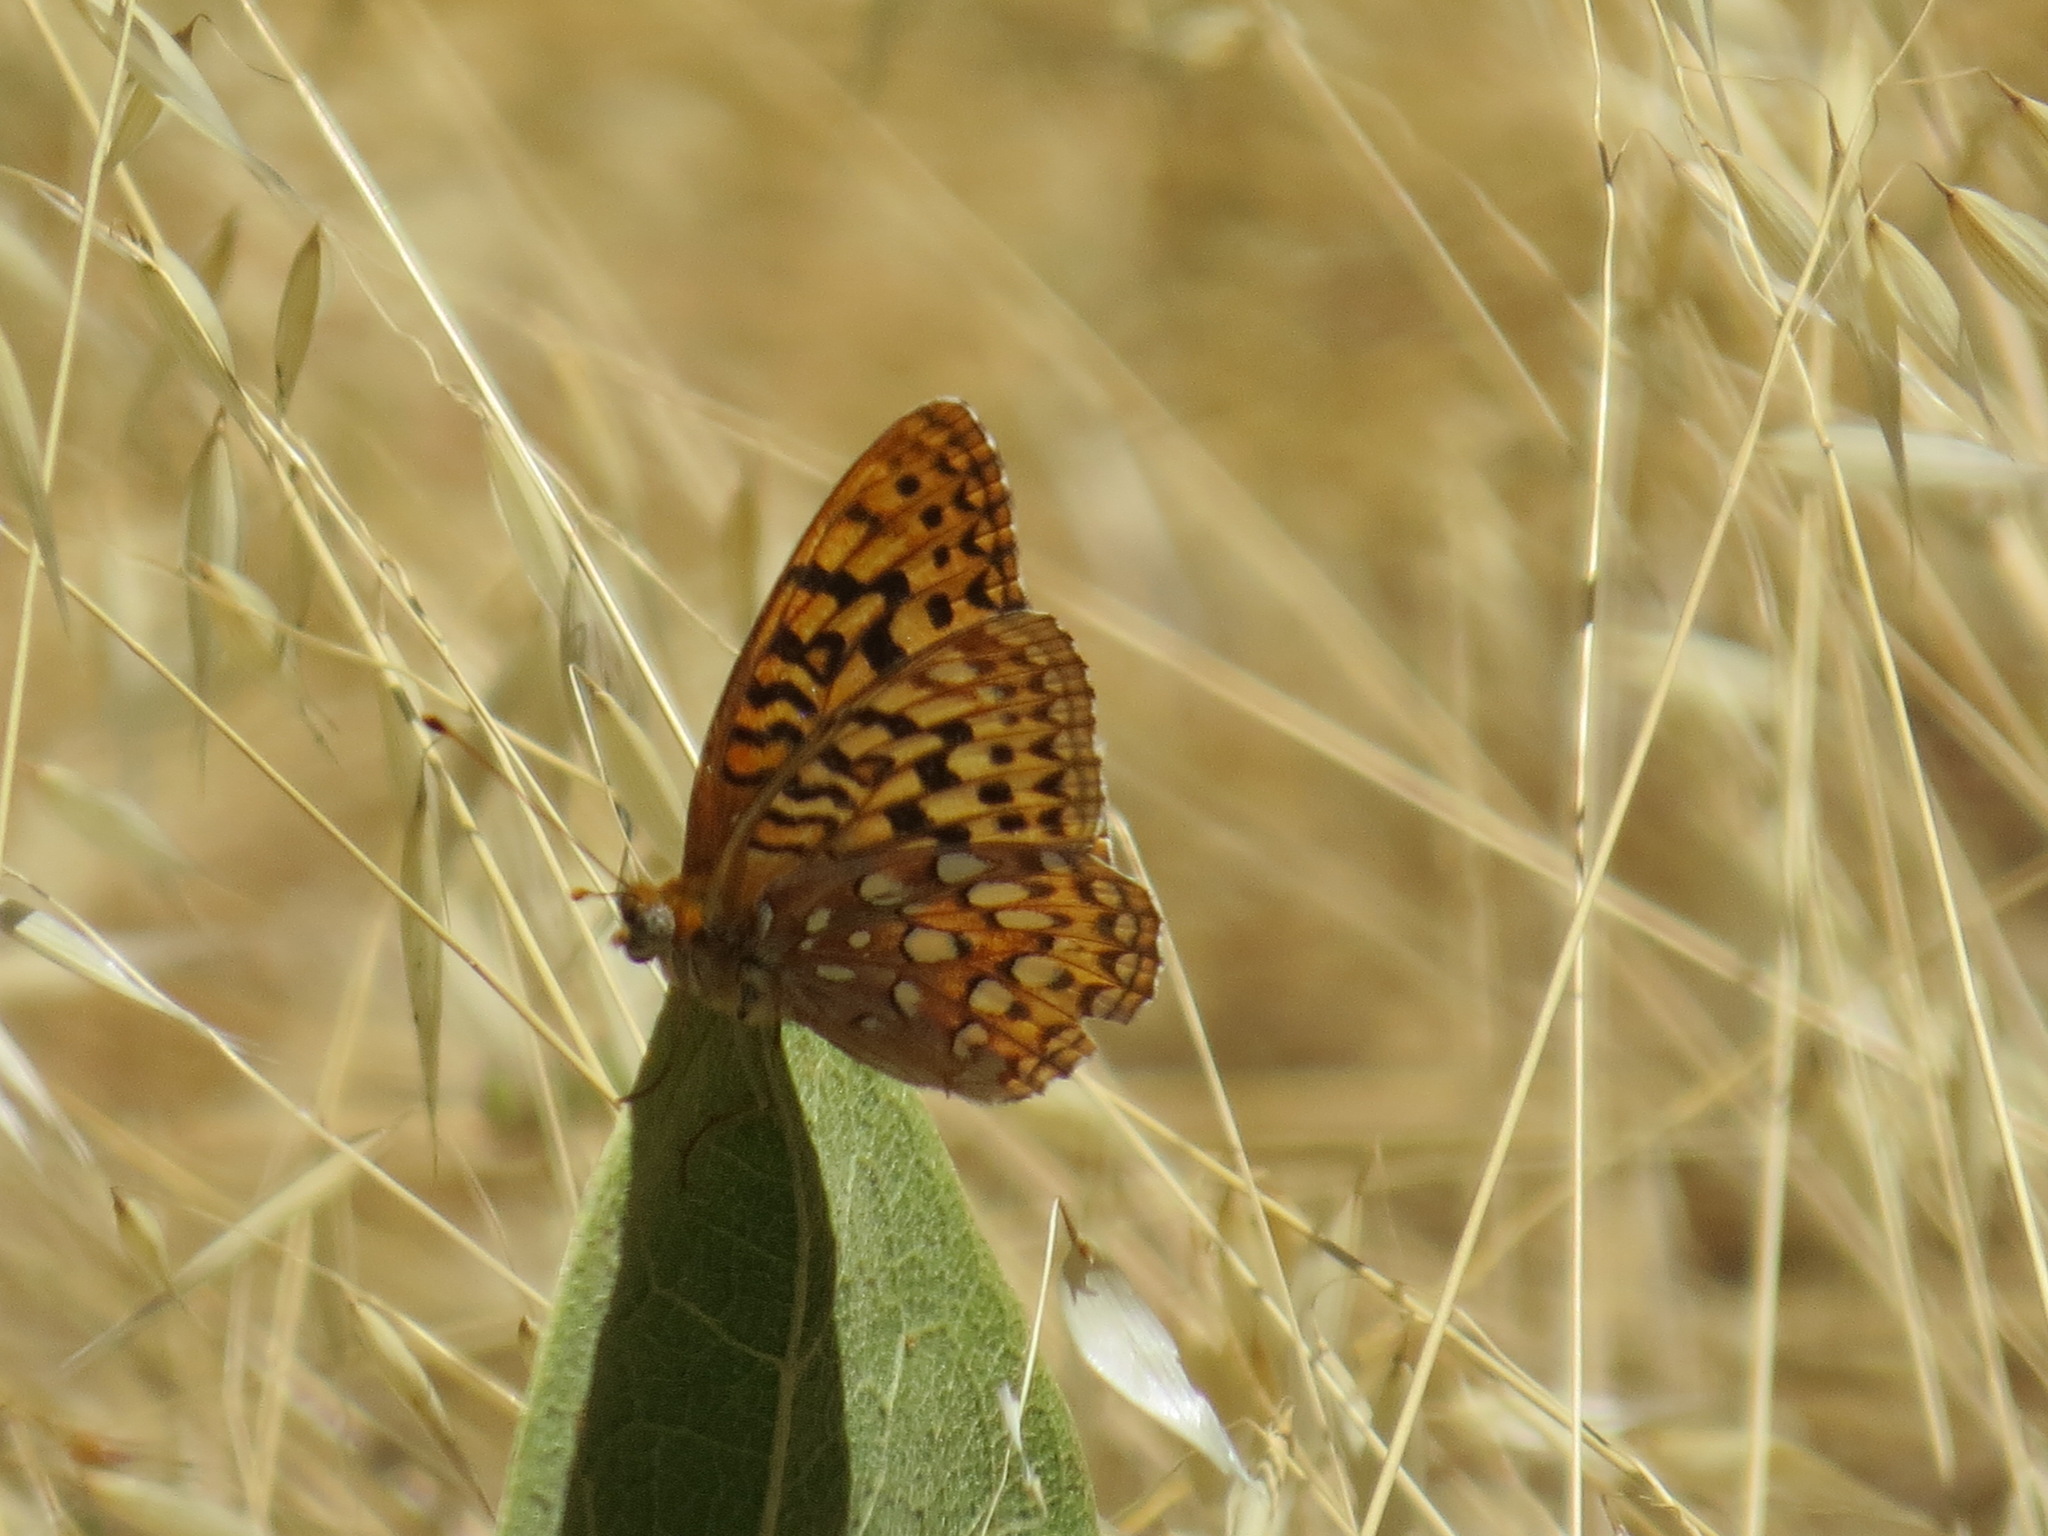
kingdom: Animalia
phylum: Arthropoda
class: Insecta
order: Lepidoptera
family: Nymphalidae
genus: Argynnis
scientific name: Argynnis coronis
